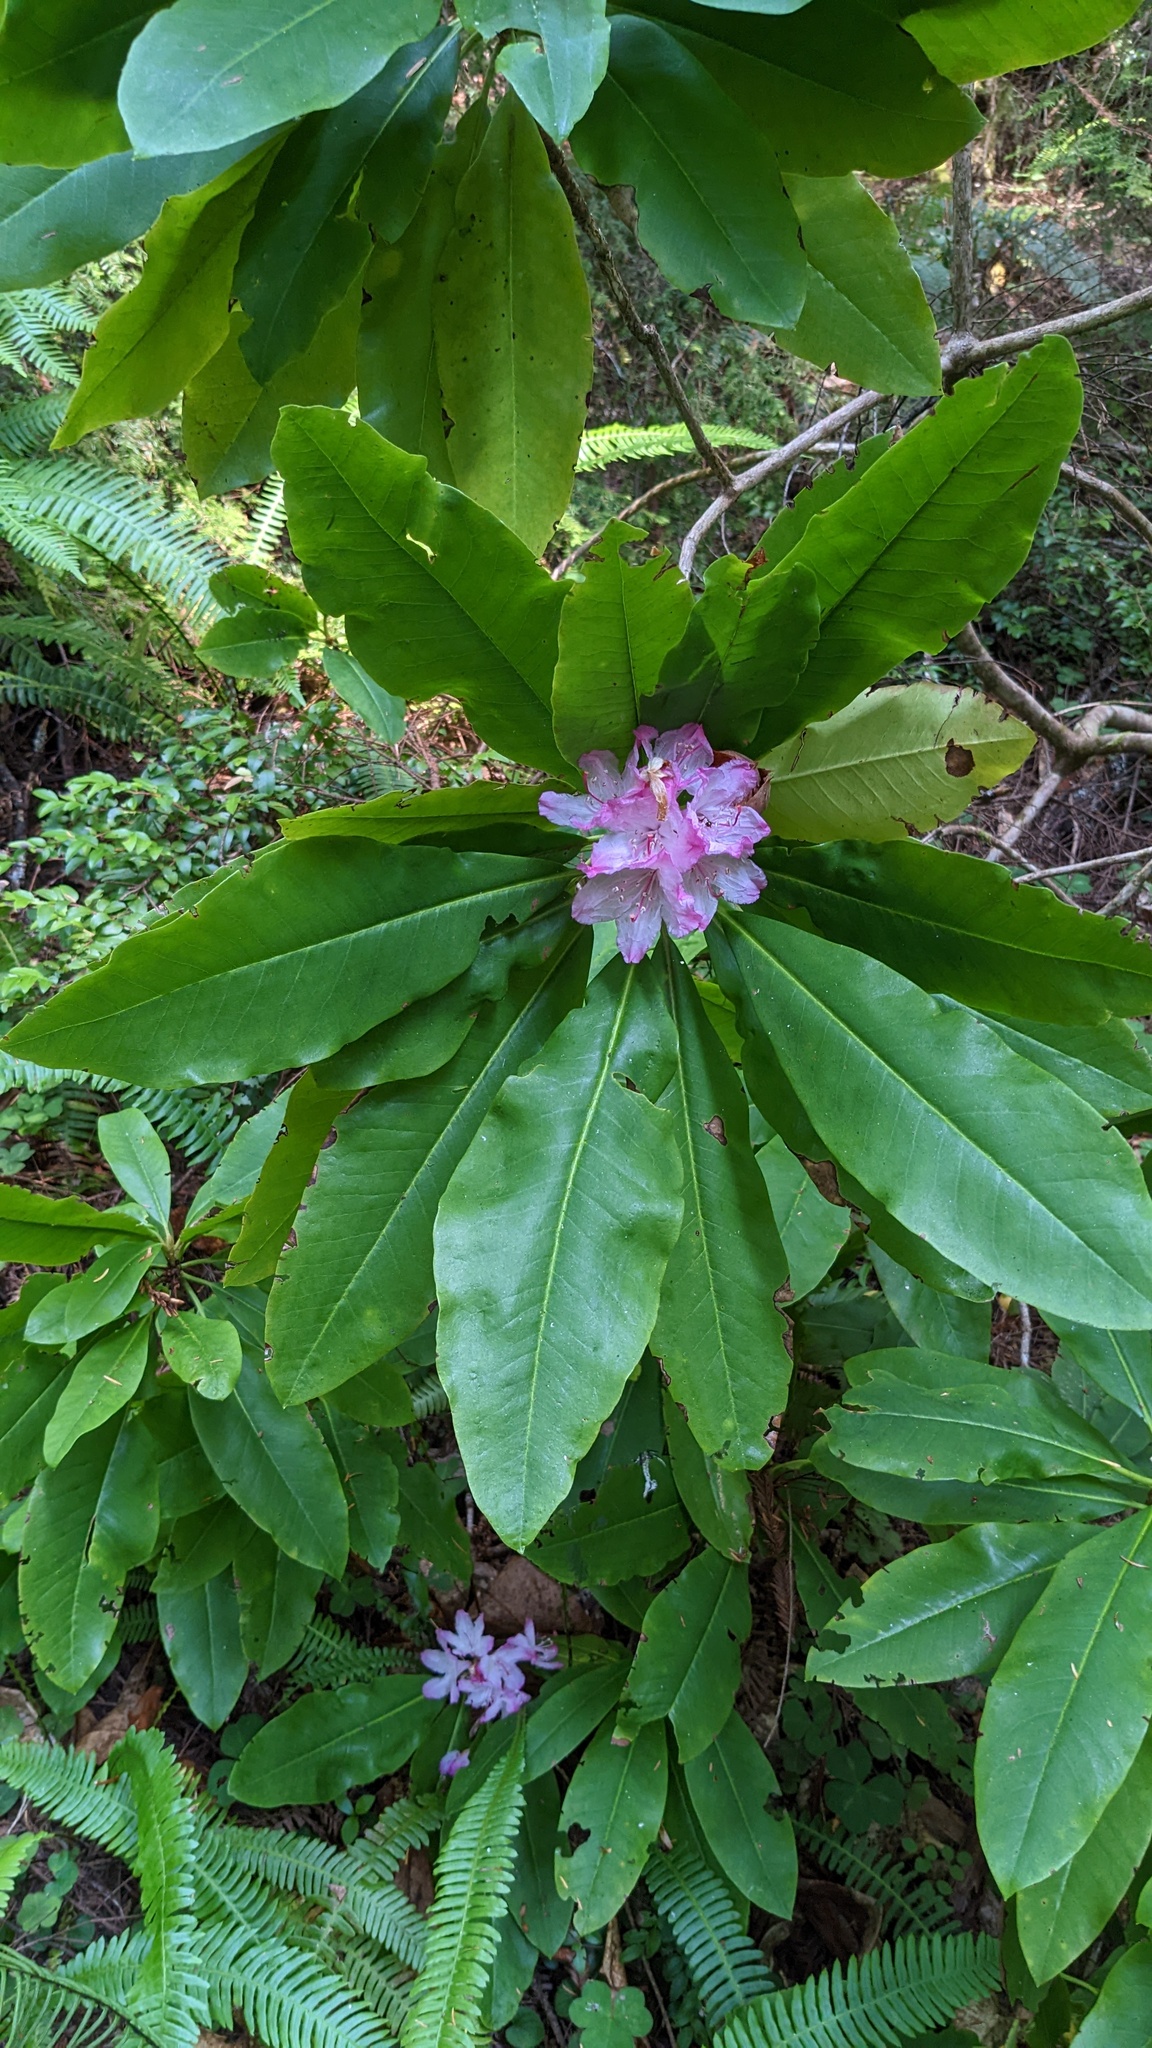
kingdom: Plantae
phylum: Tracheophyta
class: Magnoliopsida
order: Ericales
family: Ericaceae
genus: Rhododendron
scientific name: Rhododendron macrophyllum
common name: California rose bay
